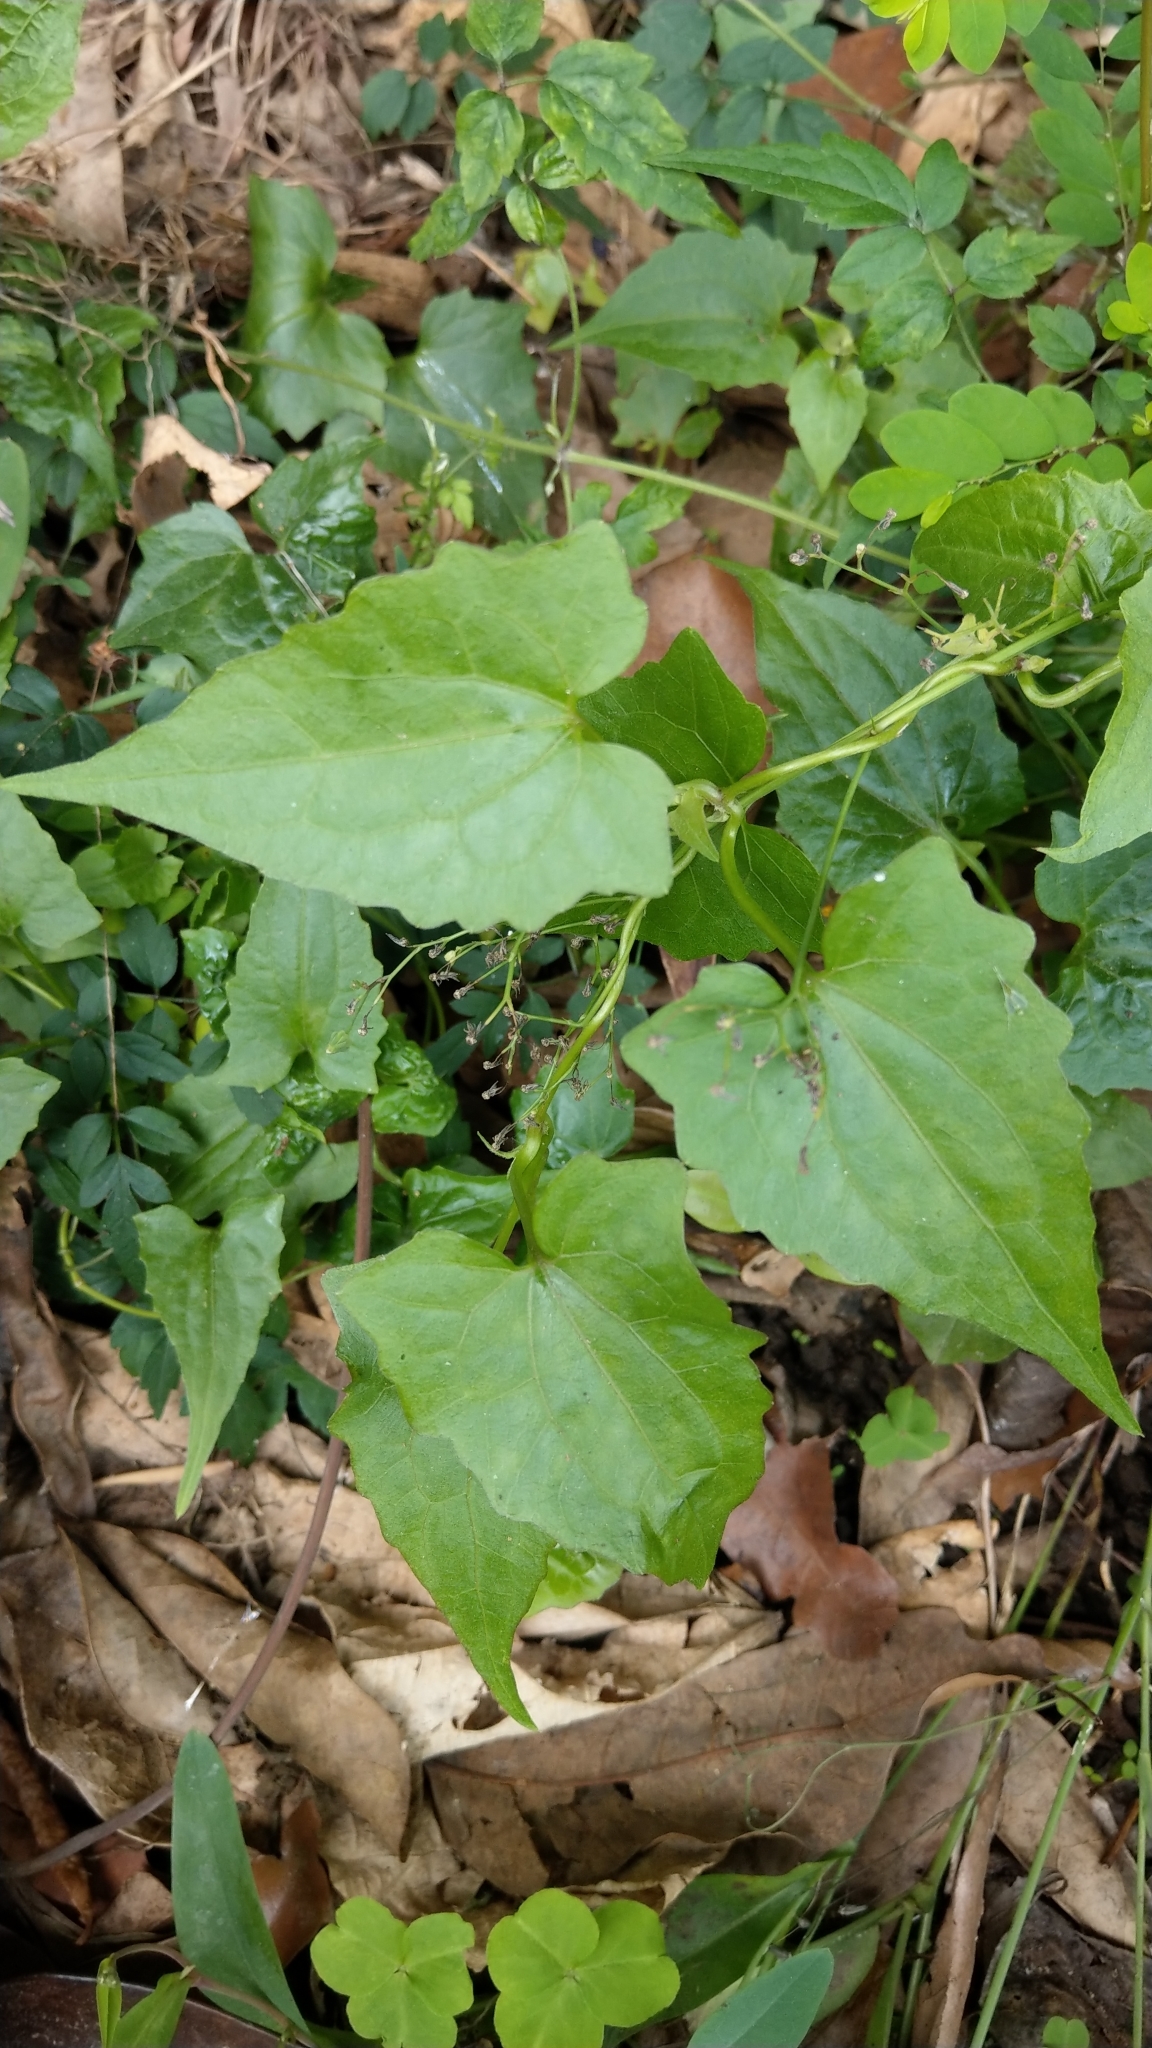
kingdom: Plantae
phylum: Tracheophyta
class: Magnoliopsida
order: Asterales
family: Asteraceae
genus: Mikania
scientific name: Mikania micrantha
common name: Mile-a-minute
